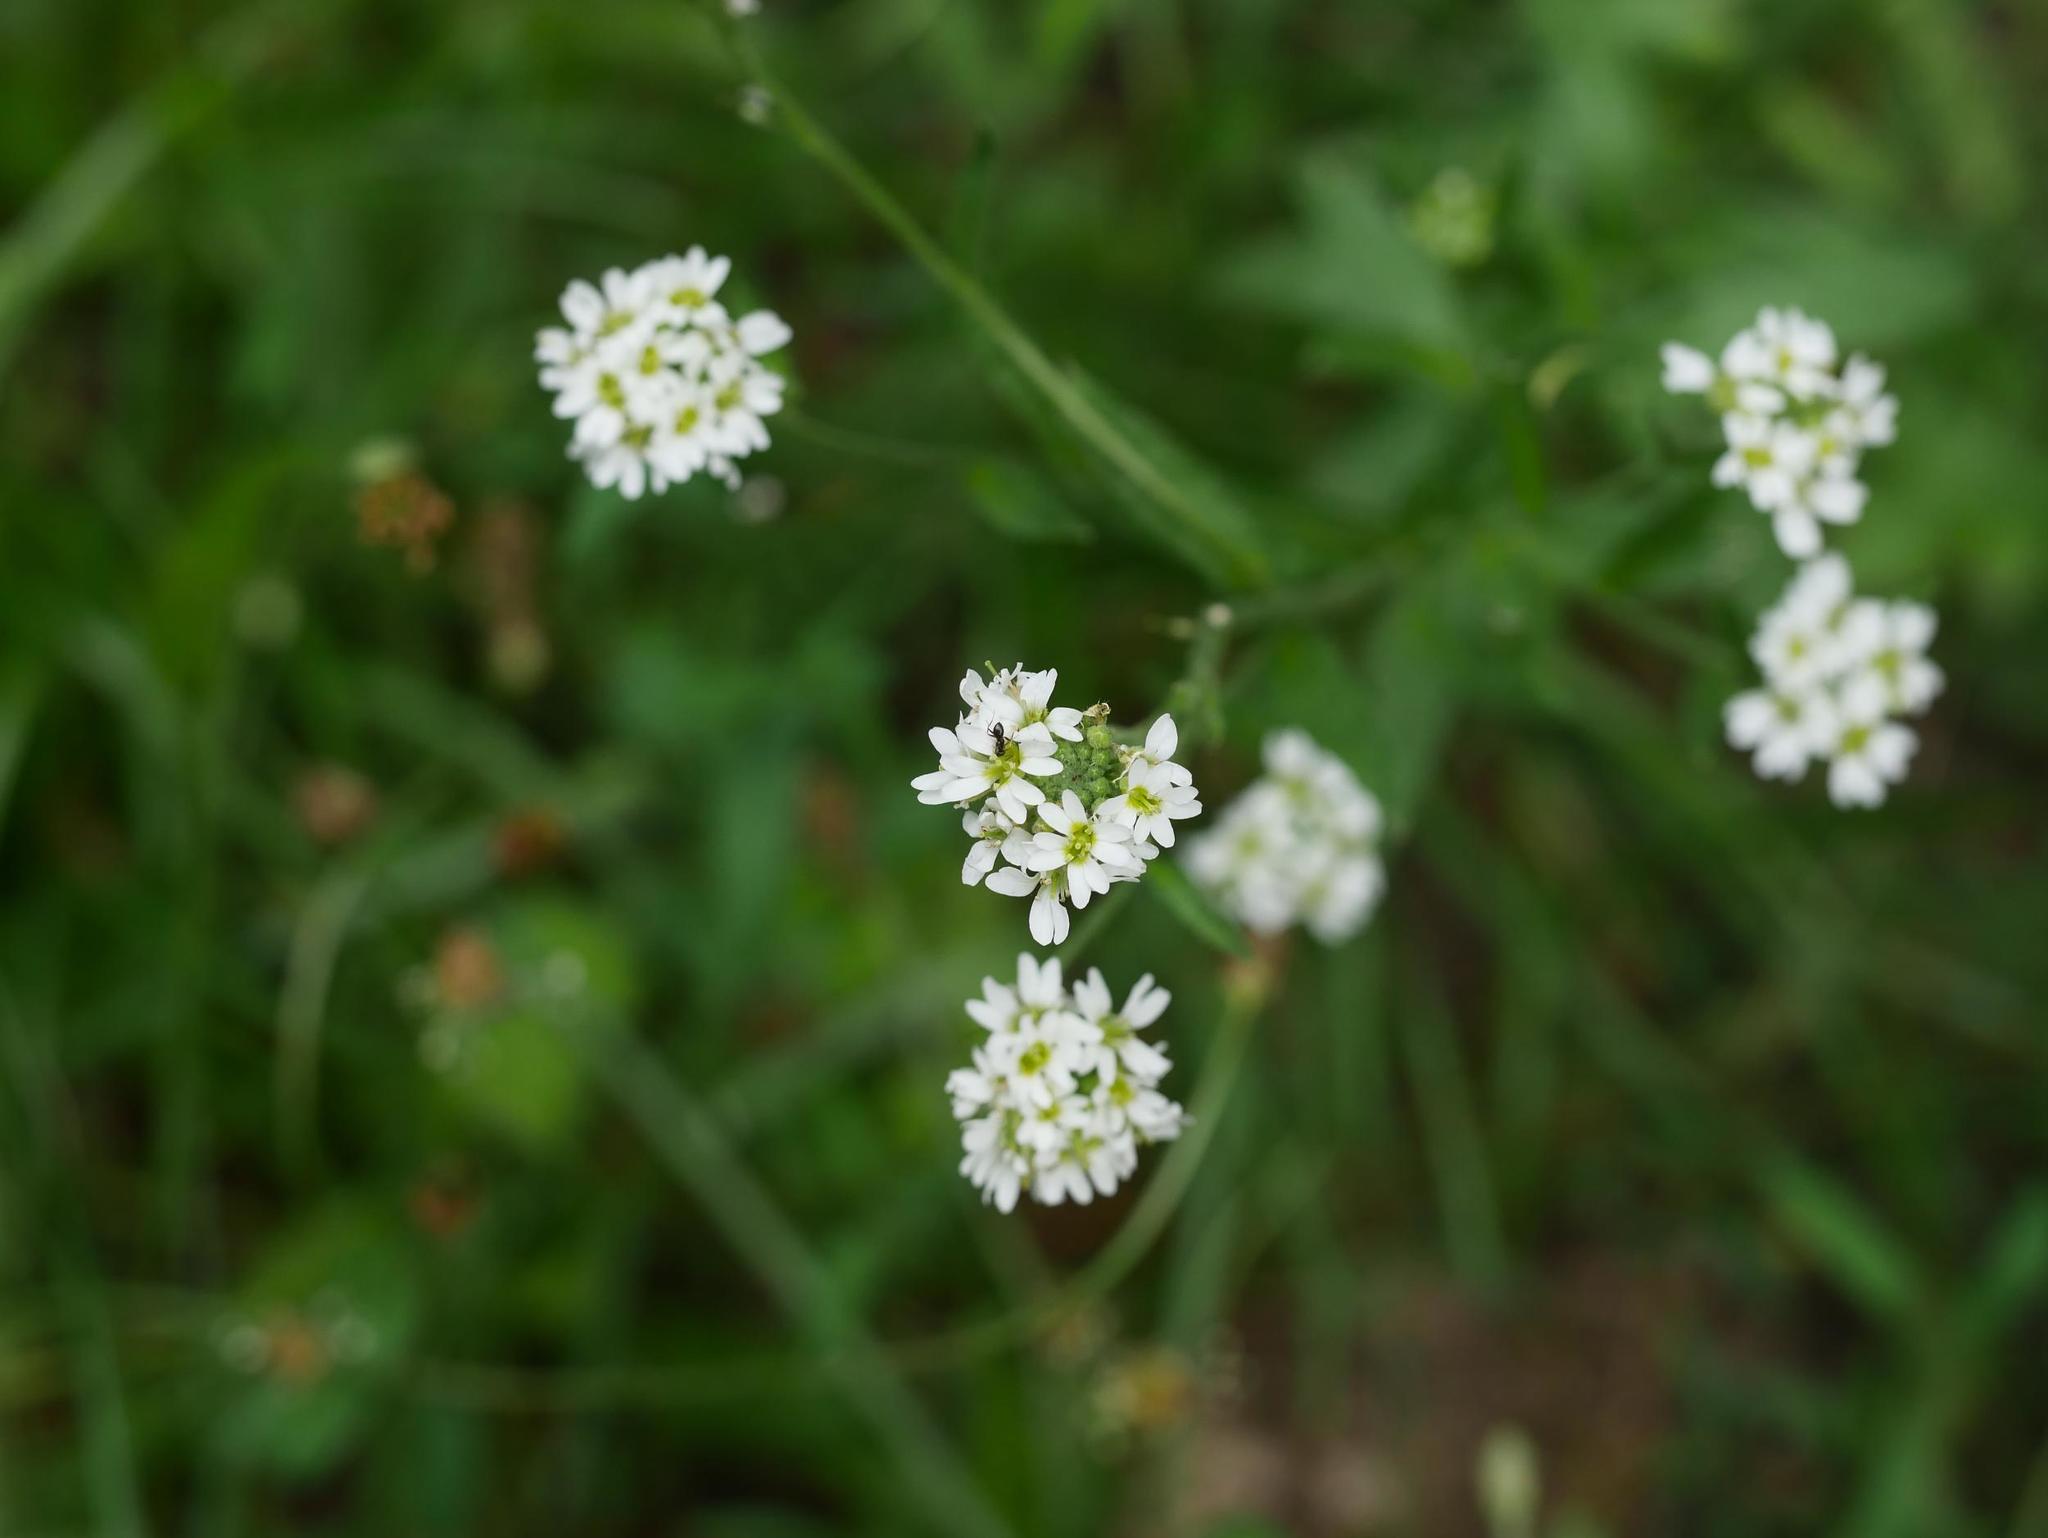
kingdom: Plantae
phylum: Tracheophyta
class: Magnoliopsida
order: Brassicales
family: Brassicaceae
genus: Berteroa
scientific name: Berteroa incana
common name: Hoary alison
